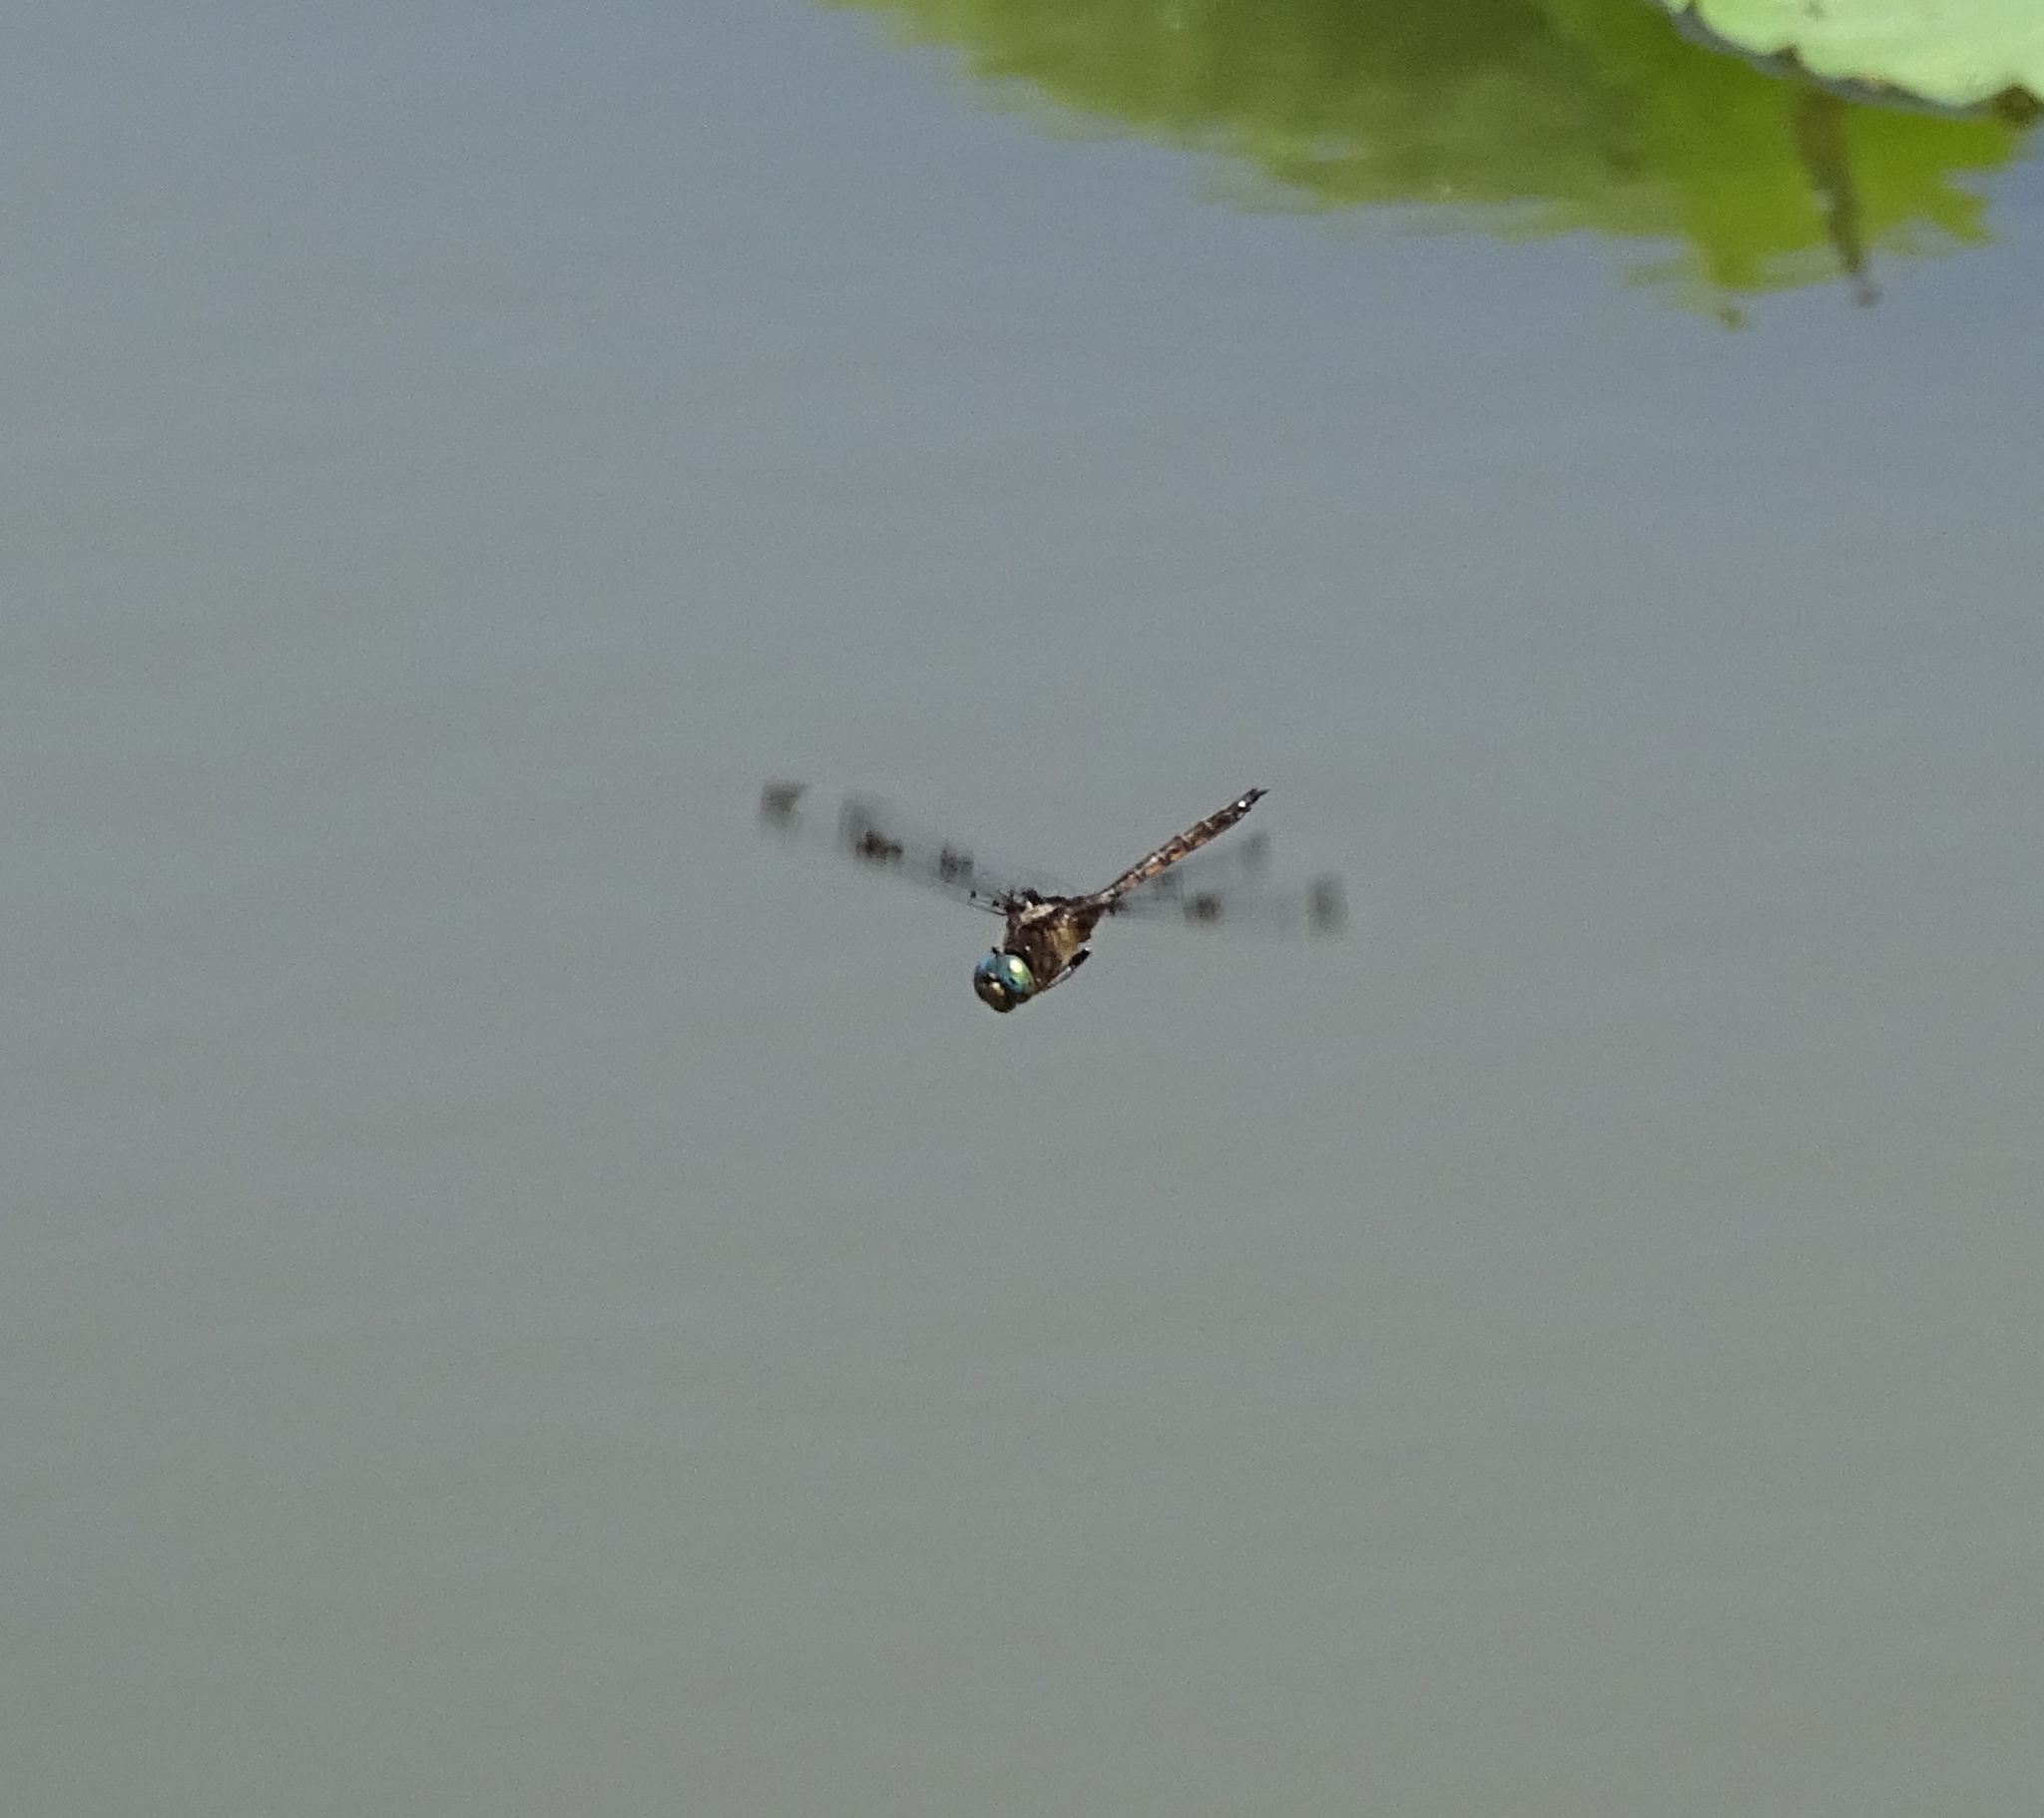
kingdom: Animalia
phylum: Arthropoda
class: Insecta
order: Odonata
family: Corduliidae
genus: Epitheca
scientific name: Epitheca princeps
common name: Prince baskettail
